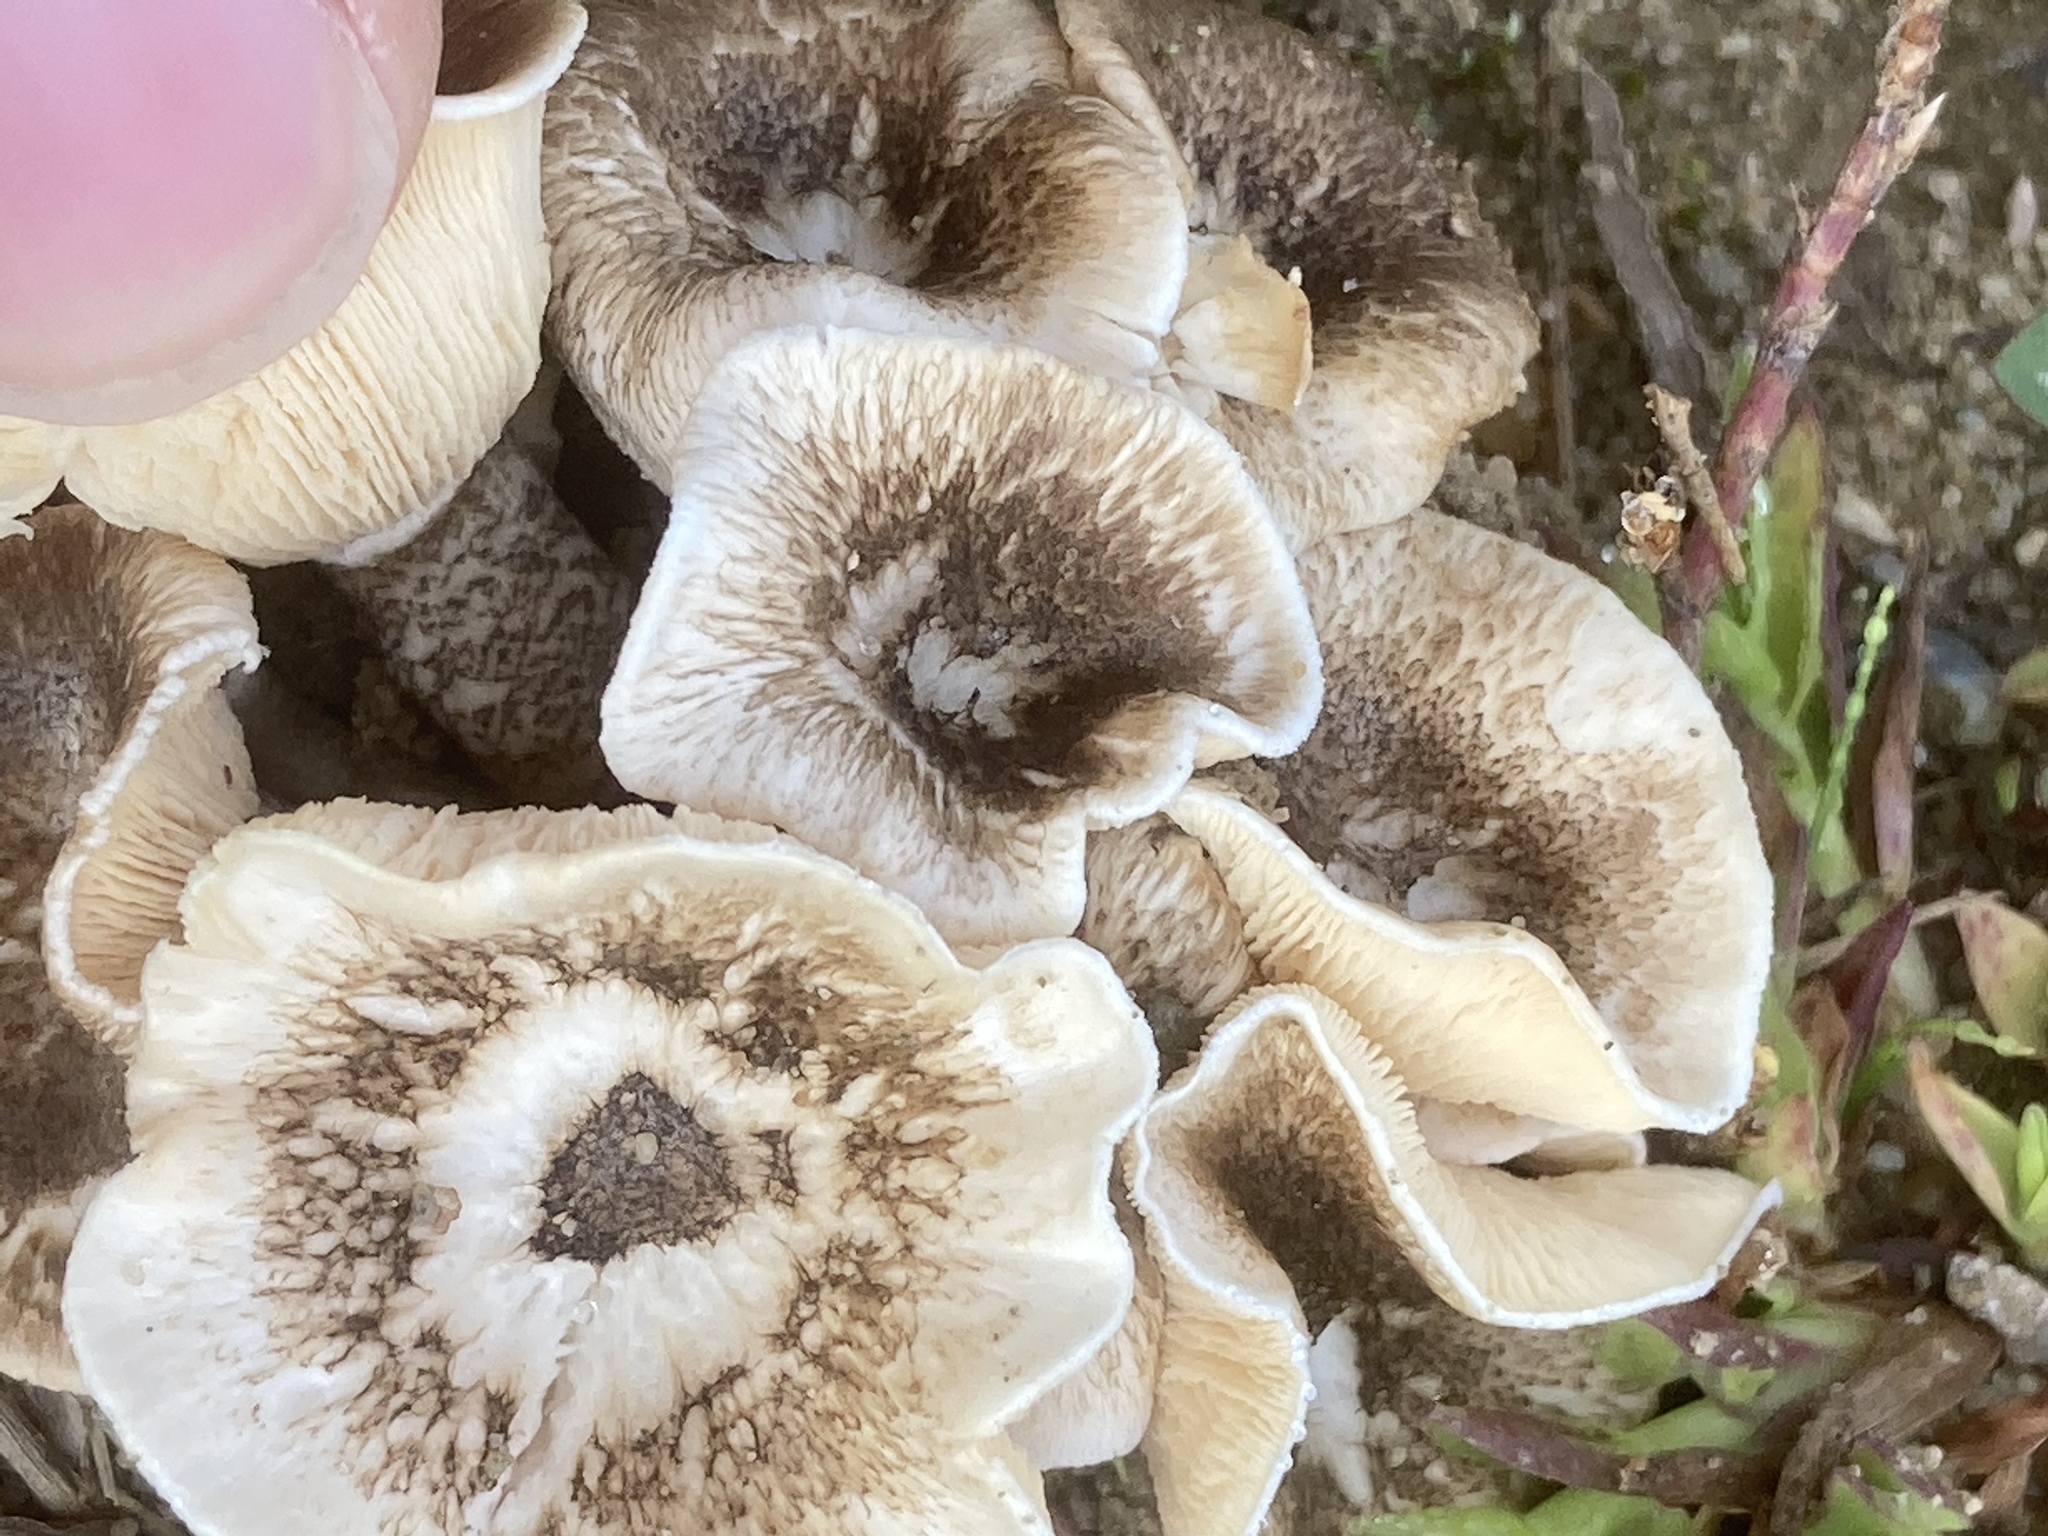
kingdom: Fungi
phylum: Basidiomycota
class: Agaricomycetes
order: Polyporales
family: Polyporaceae
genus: Lentinus
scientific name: Lentinus tigrinus
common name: Tiger sawgill
